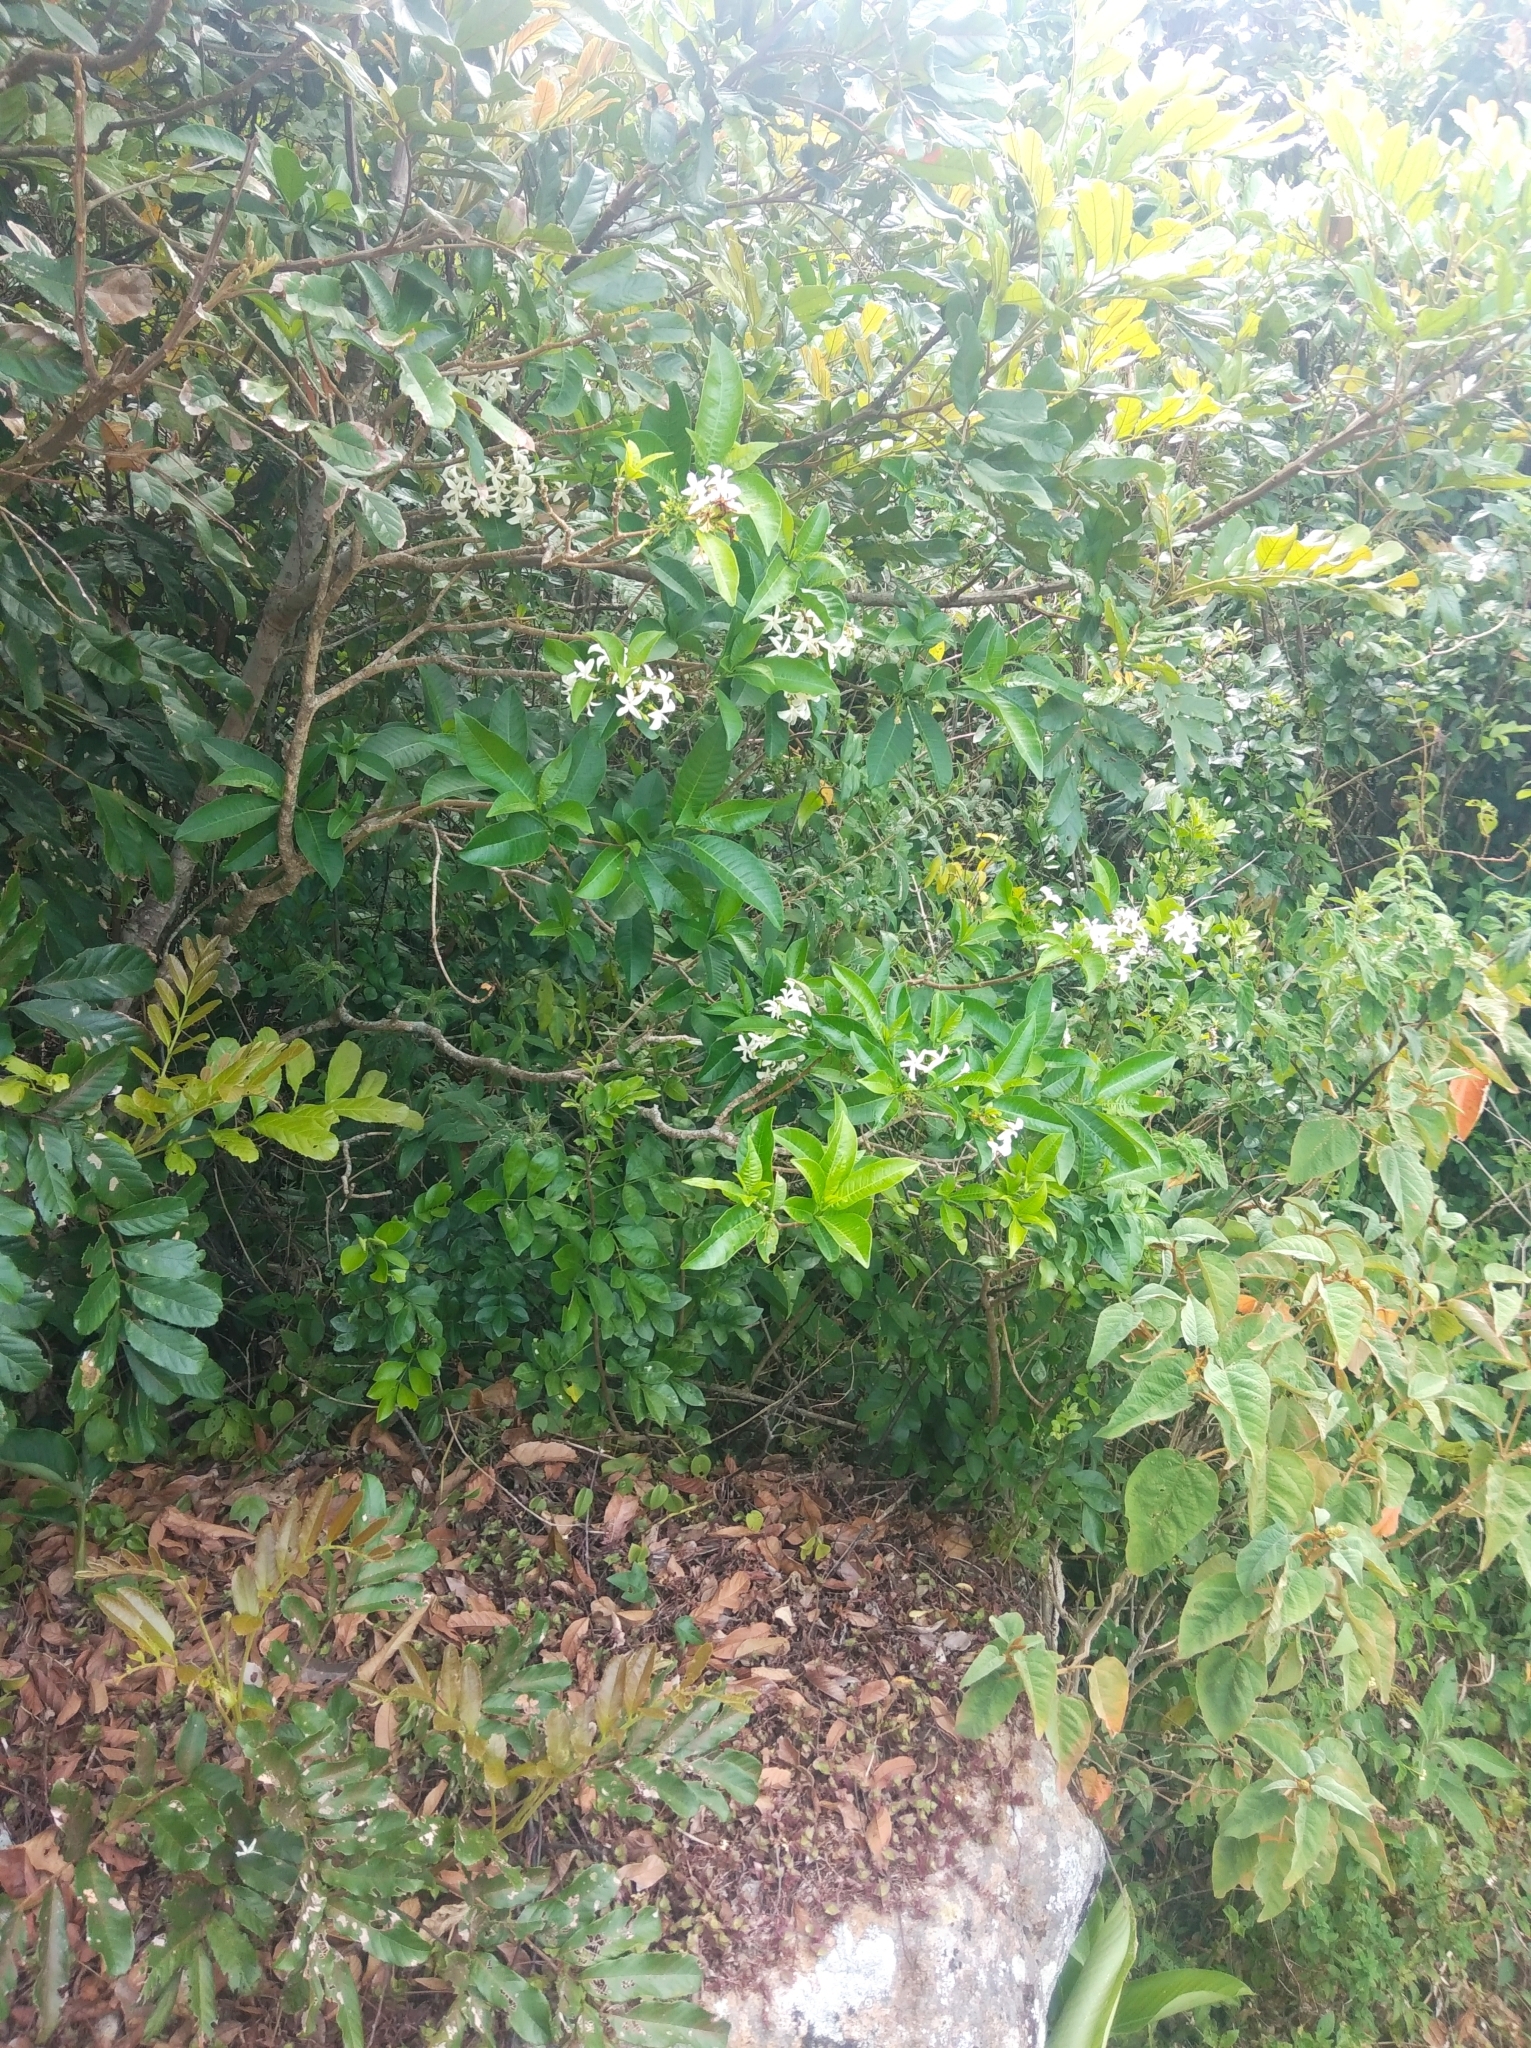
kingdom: Plantae
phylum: Tracheophyta
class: Magnoliopsida
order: Gentianales
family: Apocynaceae
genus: Tabernaemontana
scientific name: Tabernaemontana catharinensis
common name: Pinwheel-flower
